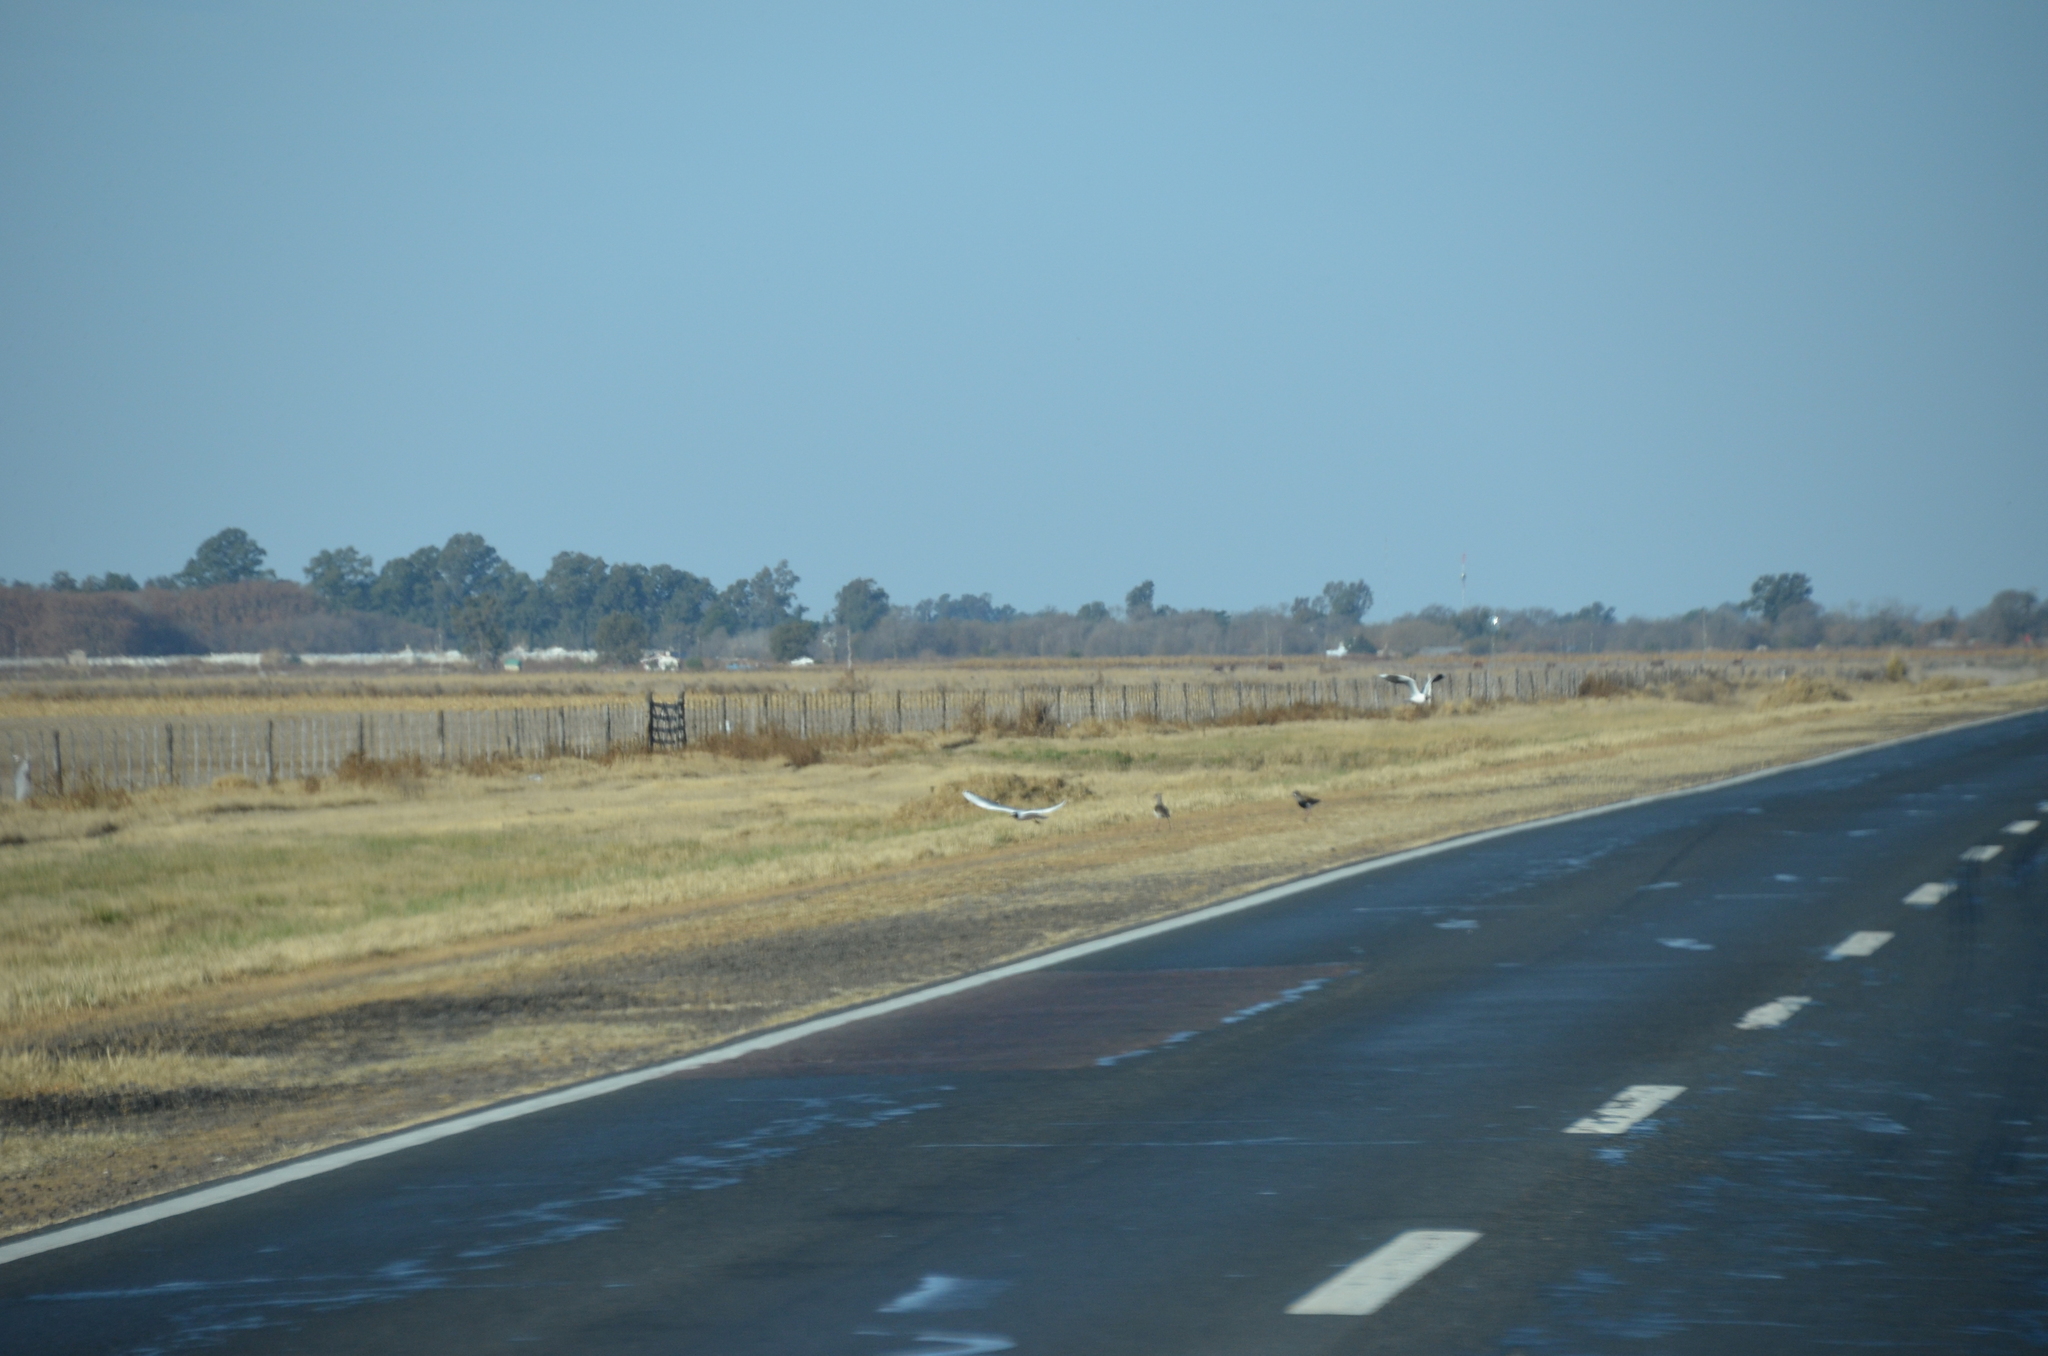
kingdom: Animalia
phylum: Chordata
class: Aves
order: Charadriiformes
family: Charadriidae
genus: Vanellus
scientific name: Vanellus chilensis
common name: Southern lapwing
